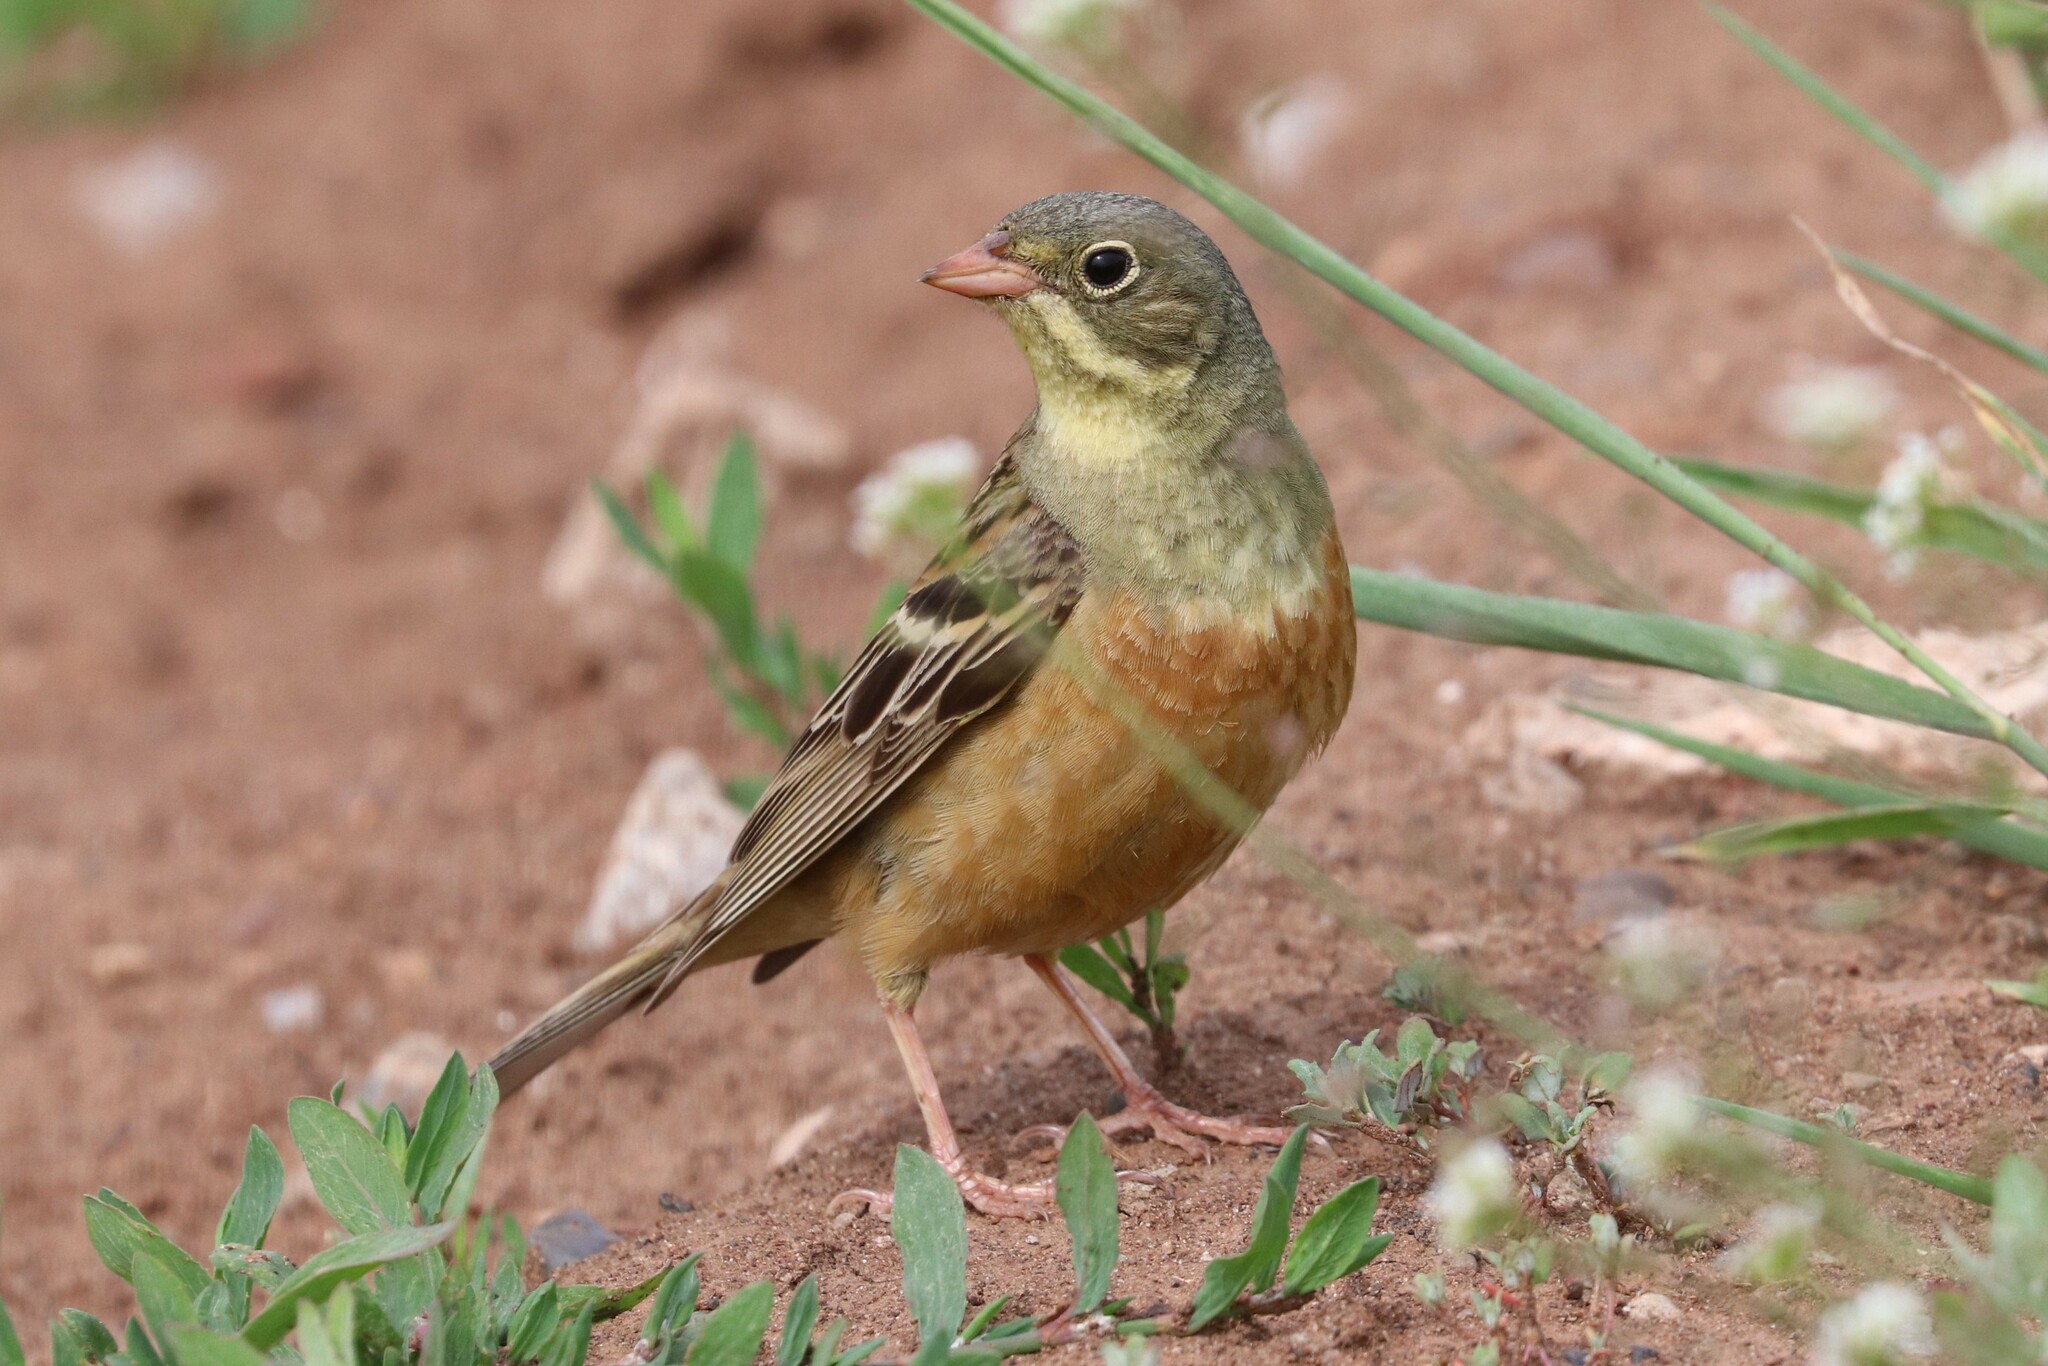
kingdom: Animalia
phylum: Chordata
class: Aves
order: Passeriformes
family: Emberizidae
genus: Emberiza
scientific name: Emberiza hortulana
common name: Ortolan bunting
